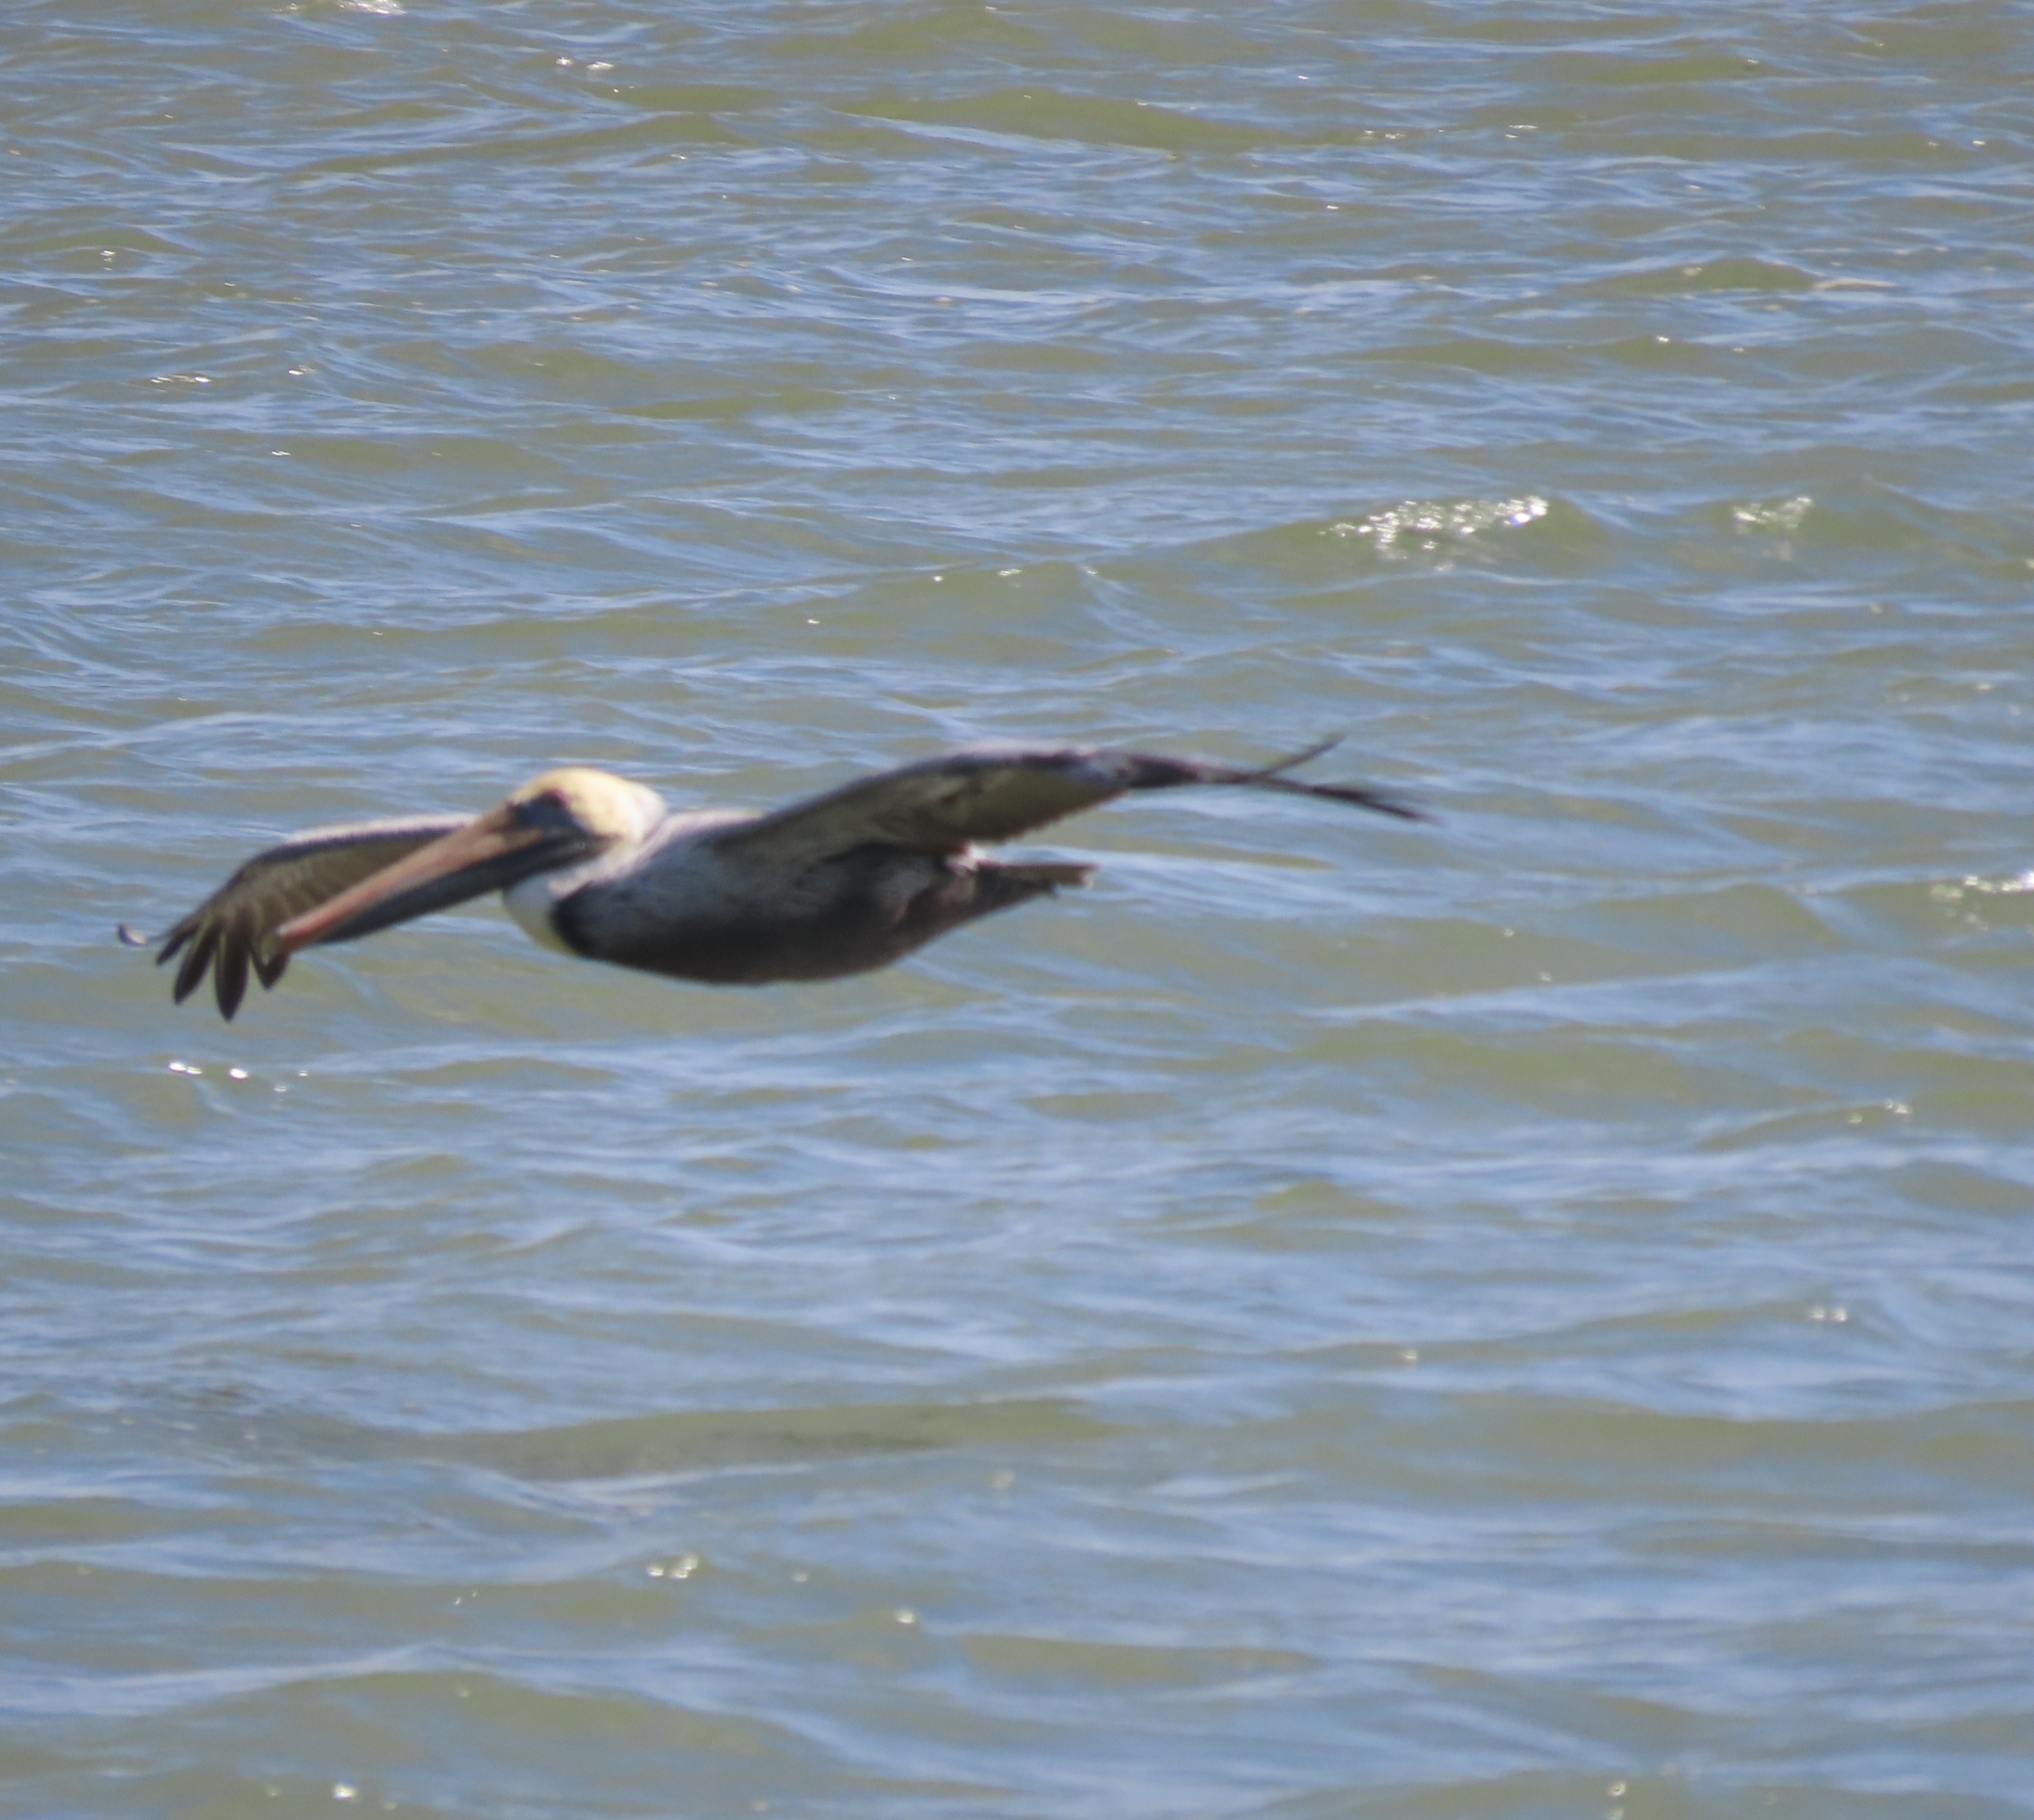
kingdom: Animalia
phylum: Chordata
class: Aves
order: Pelecaniformes
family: Pelecanidae
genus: Pelecanus
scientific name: Pelecanus occidentalis
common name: Brown pelican
